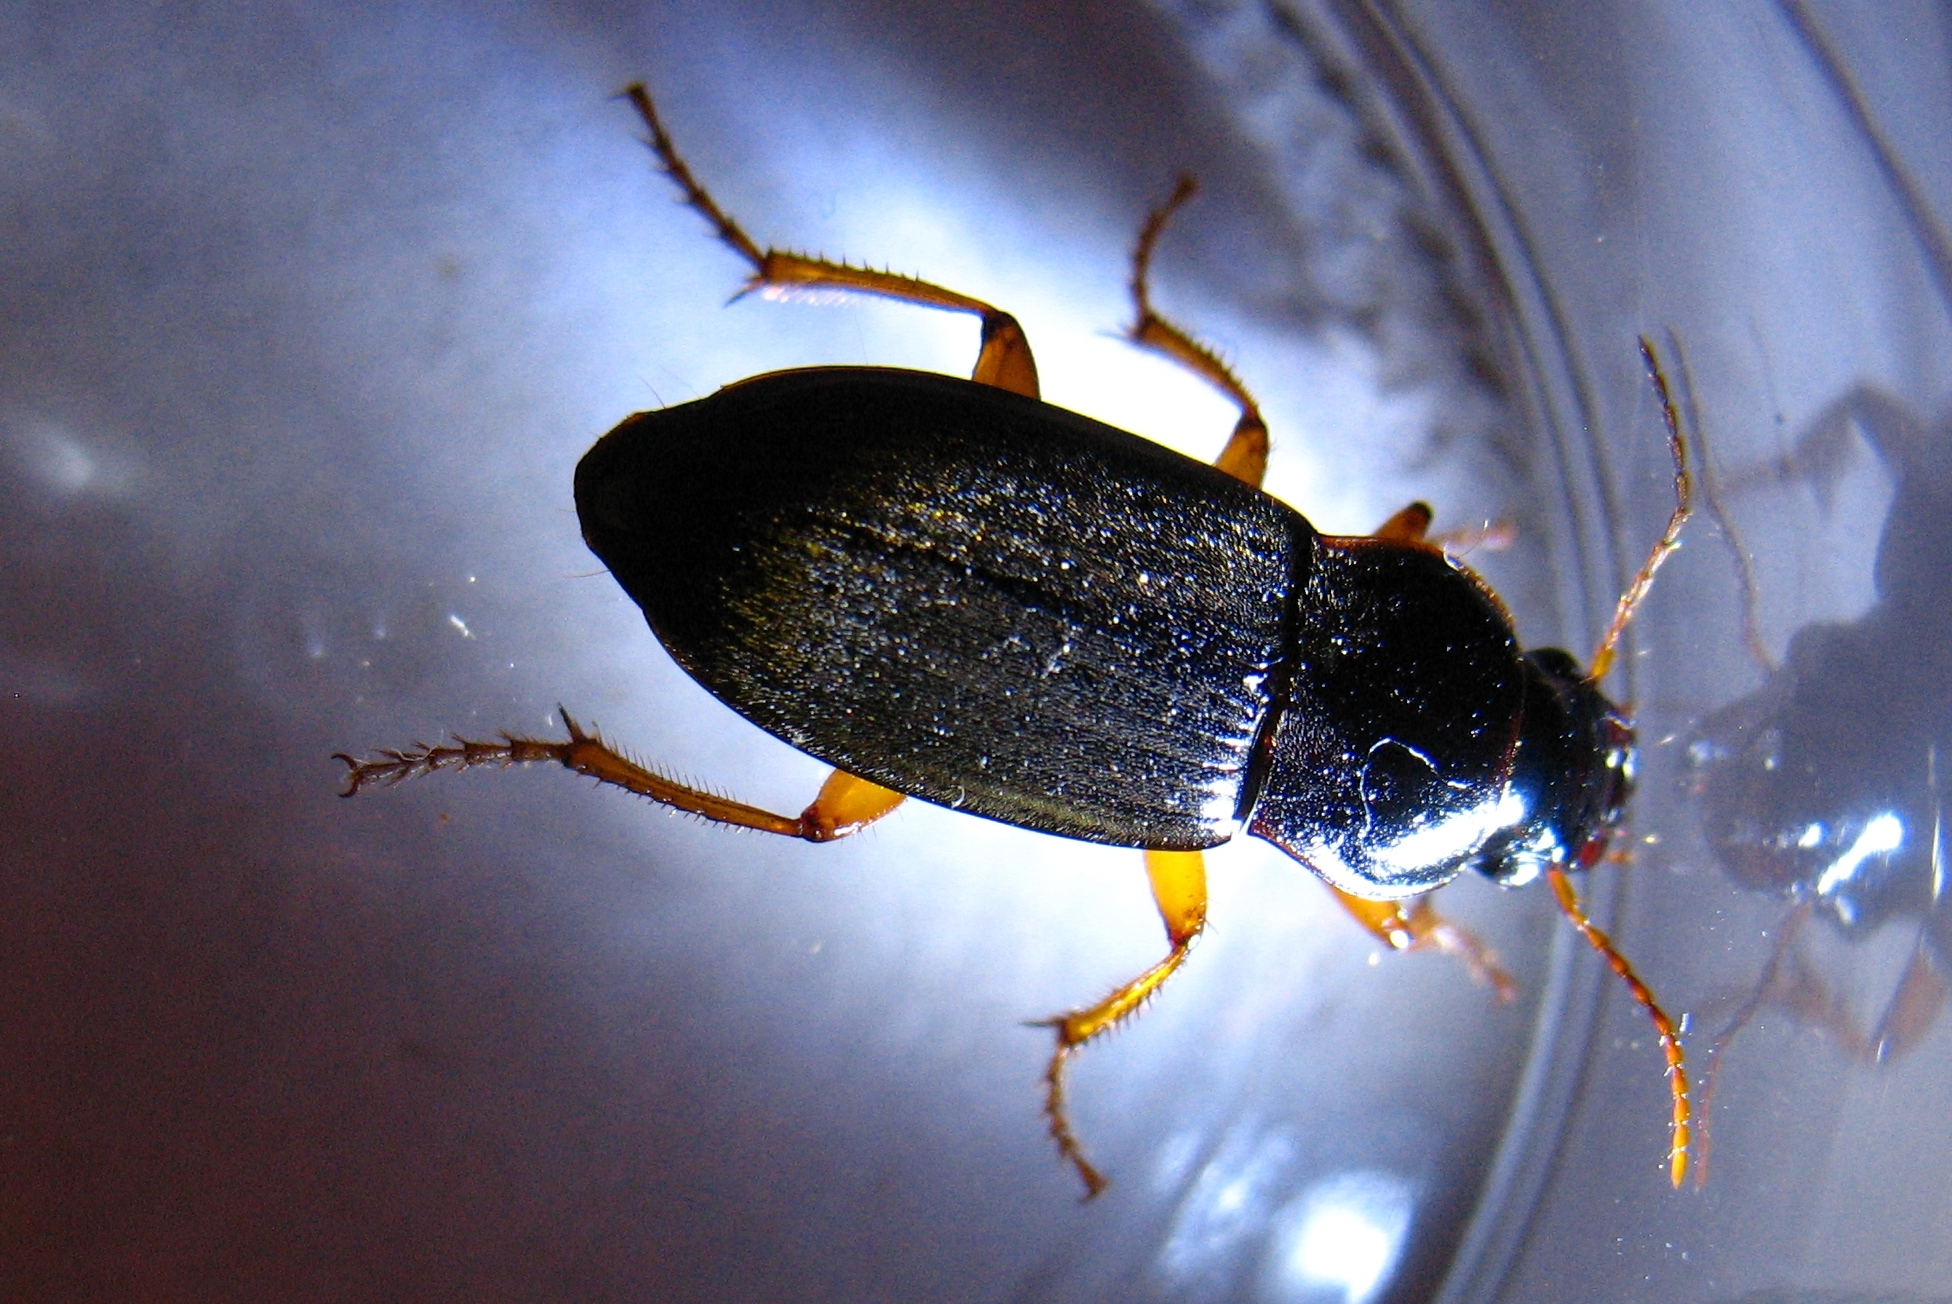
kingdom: Animalia
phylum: Arthropoda
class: Insecta
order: Coleoptera
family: Carabidae
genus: Harpalus
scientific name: Harpalus rufipes
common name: Strawberry harp ground beetle
